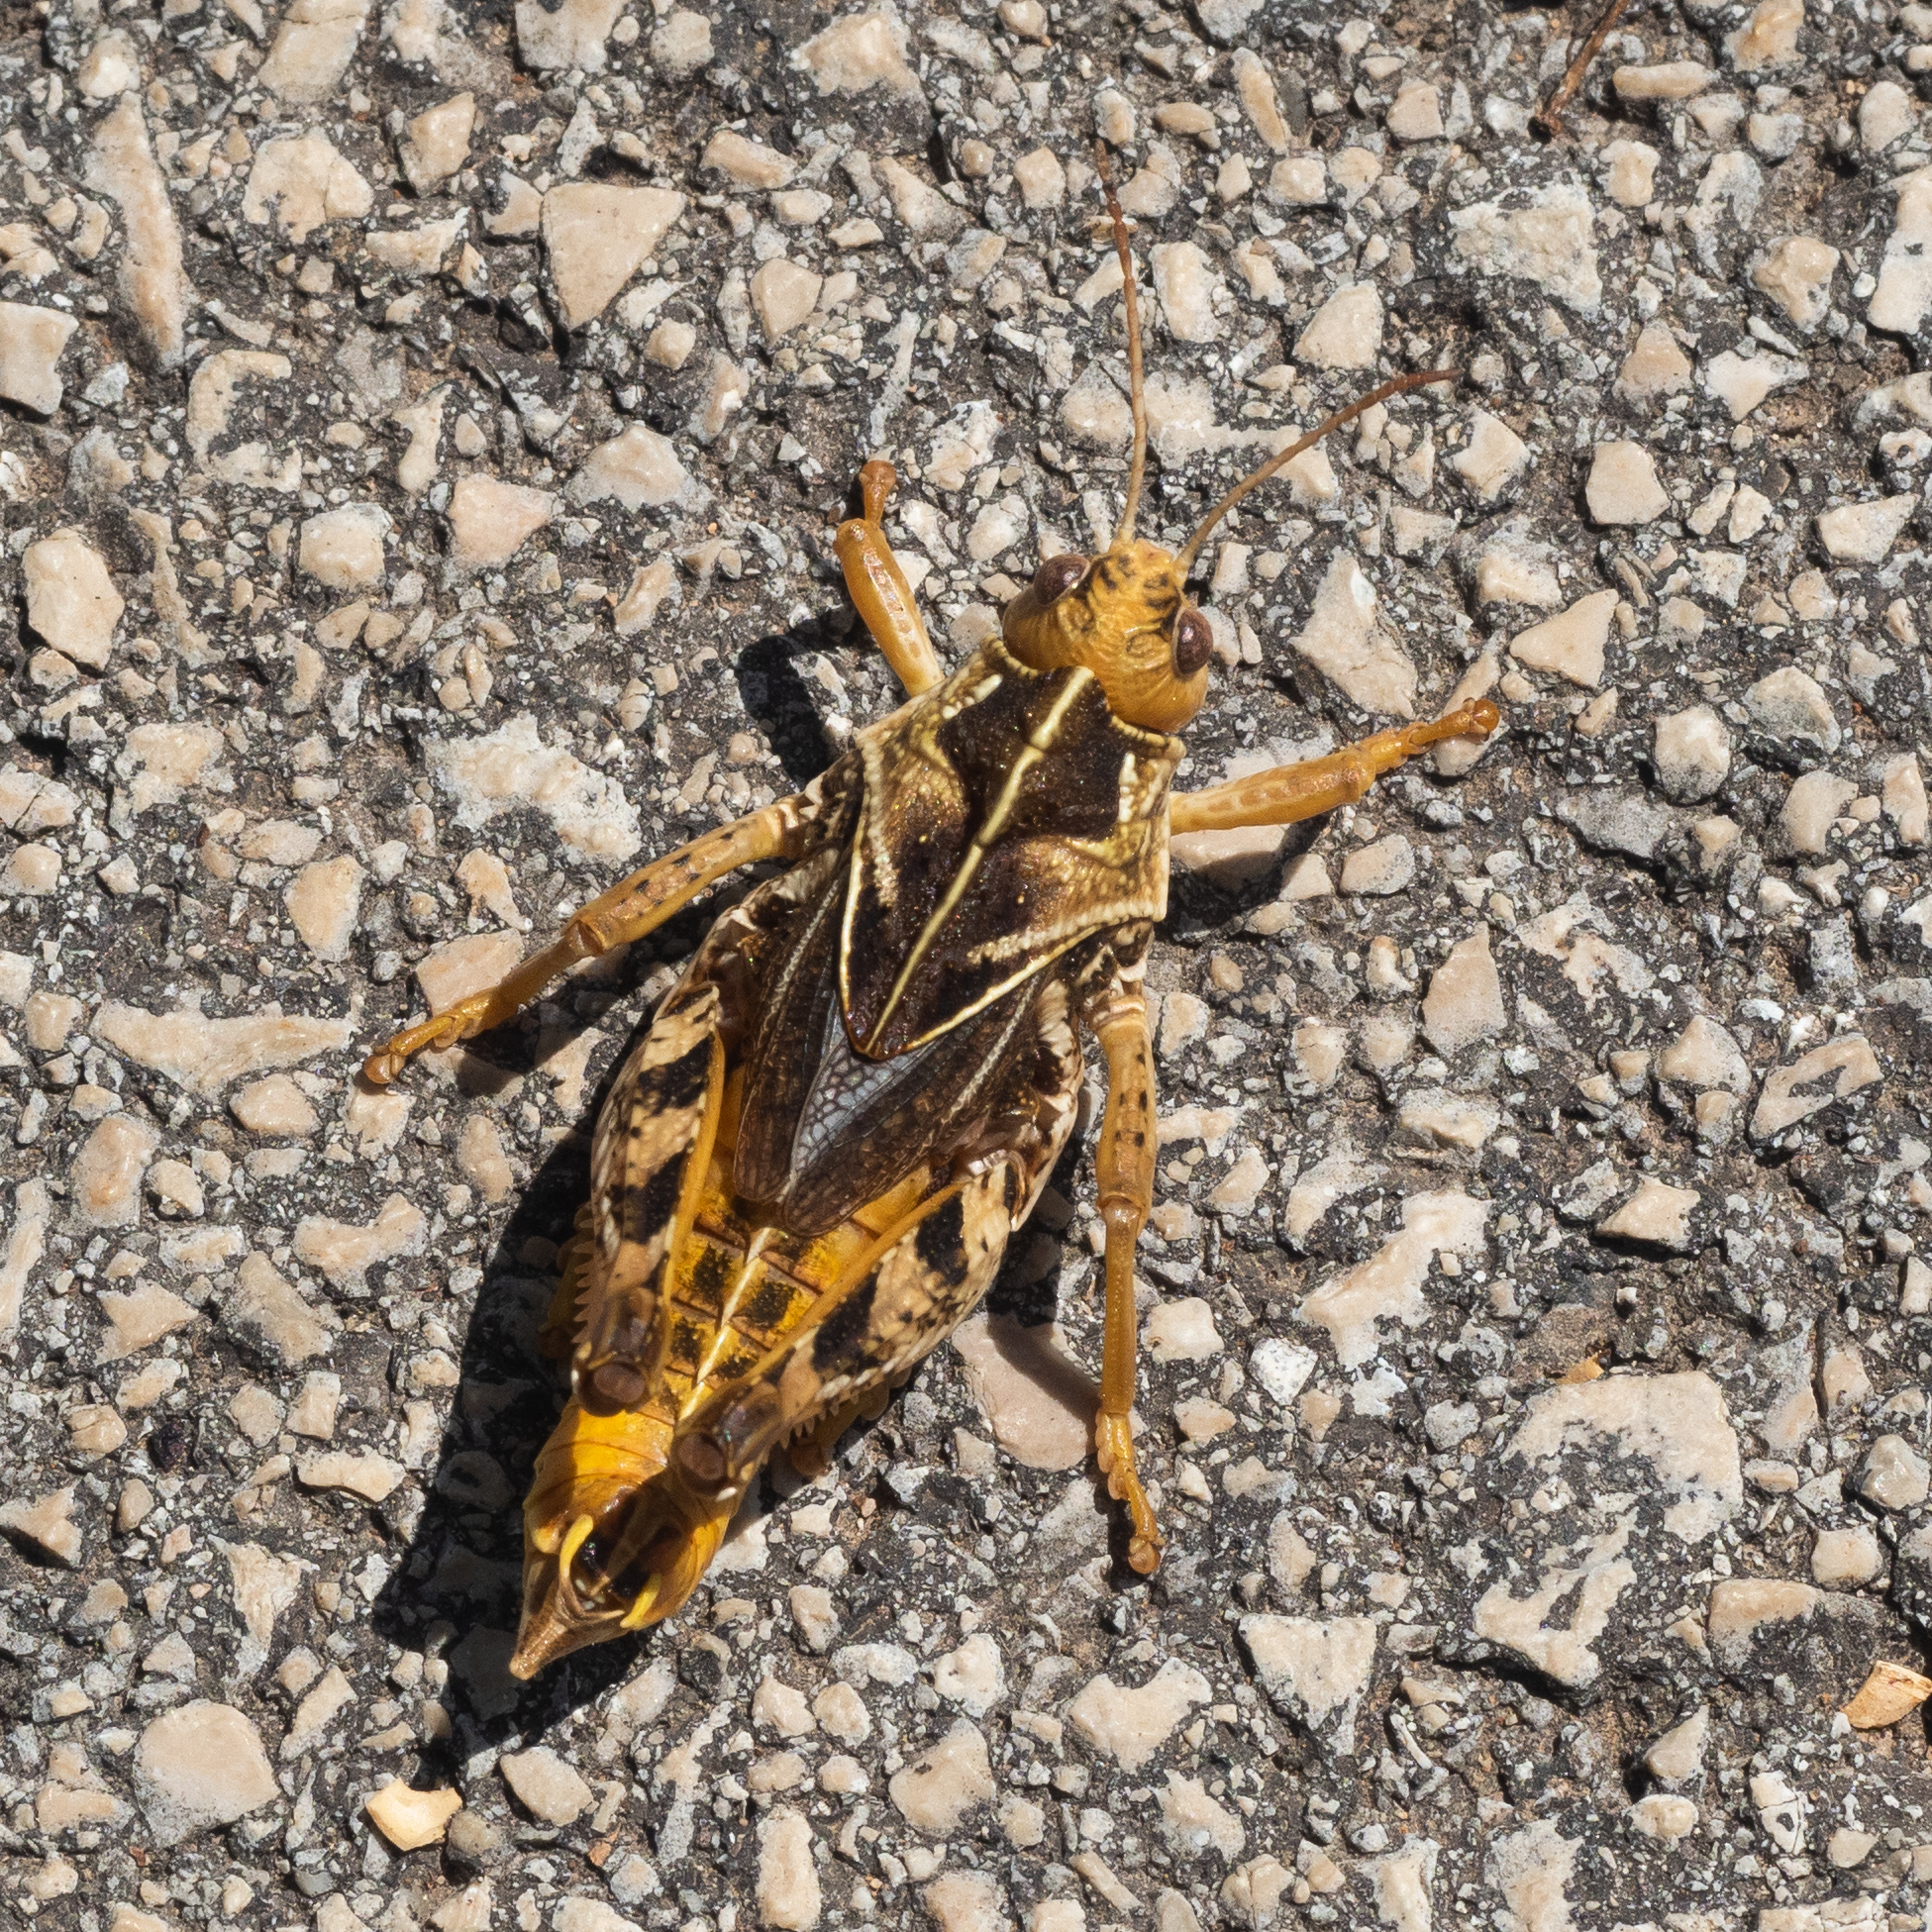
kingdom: Animalia
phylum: Arthropoda
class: Insecta
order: Orthoptera
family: Pamphagidae
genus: Prionotropis
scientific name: Prionotropis hystrix
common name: Eastern stone grasshopper
